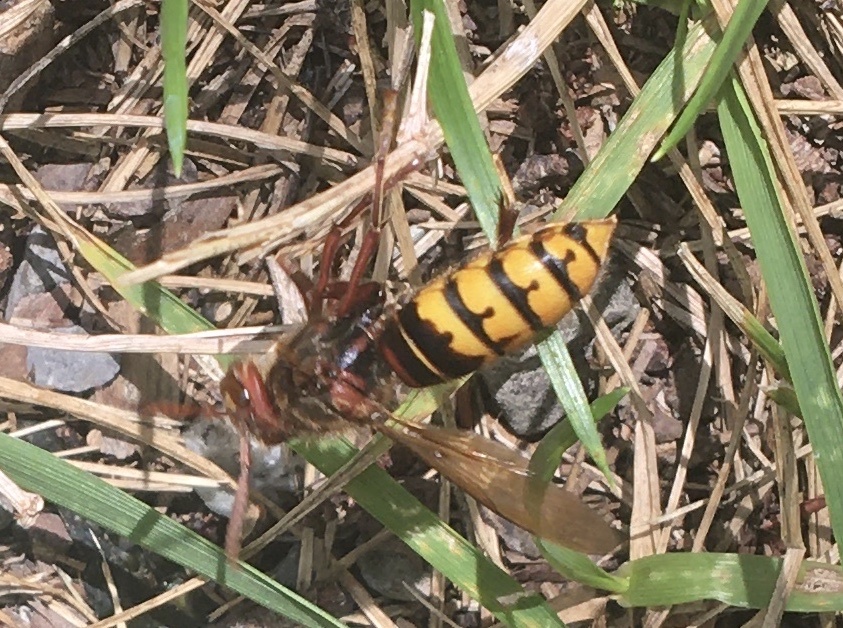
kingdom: Animalia
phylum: Arthropoda
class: Insecta
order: Hymenoptera
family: Vespidae
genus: Vespa
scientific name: Vespa crabro
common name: Hornet
